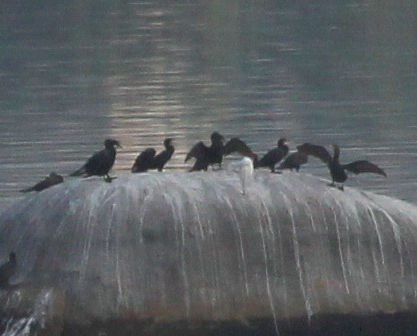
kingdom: Animalia
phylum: Chordata
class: Aves
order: Suliformes
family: Phalacrocoracidae
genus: Phalacrocorax
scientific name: Phalacrocorax brasilianus
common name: Neotropic cormorant
